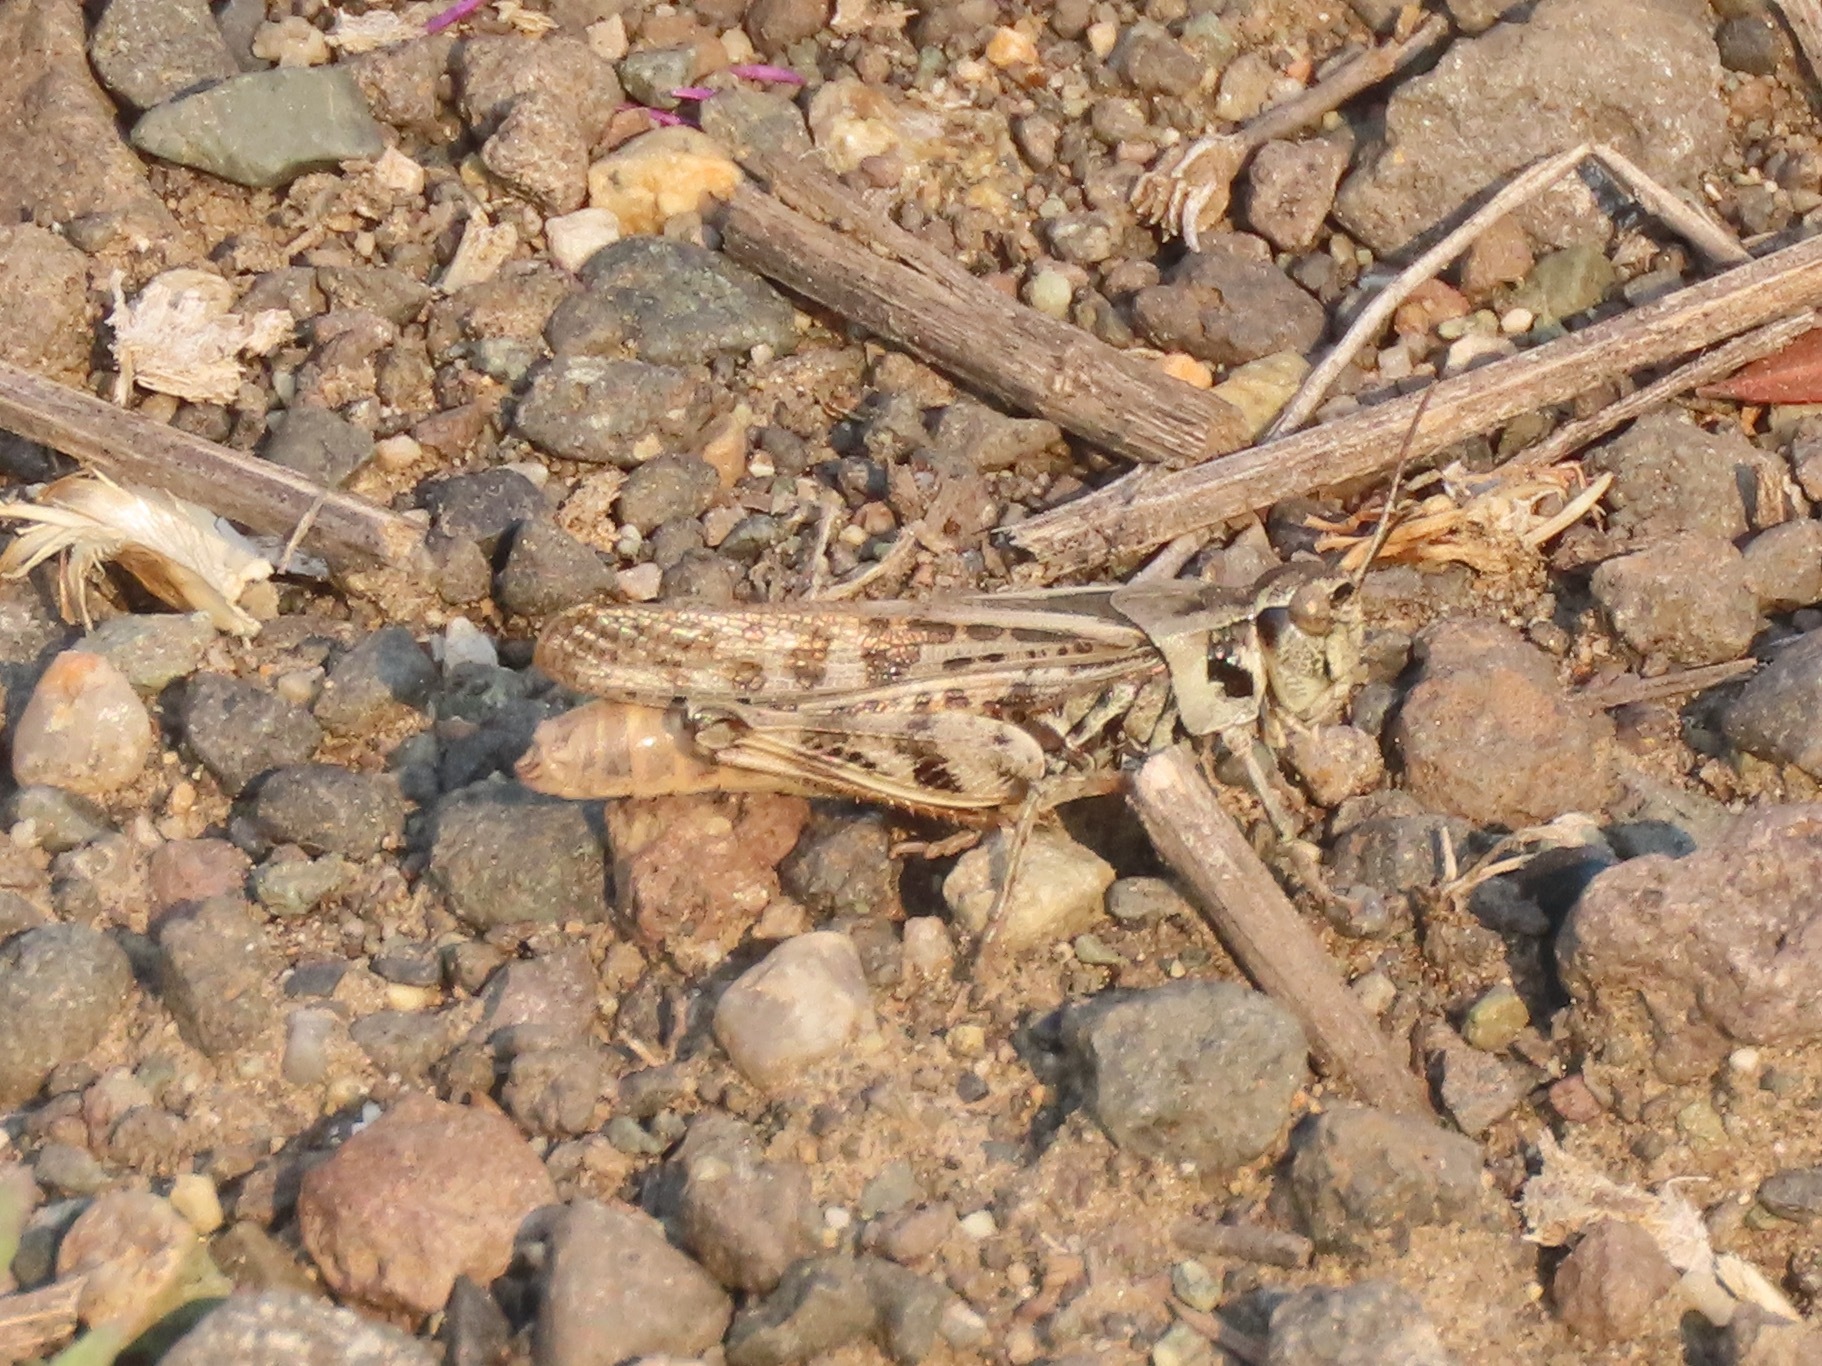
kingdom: Animalia
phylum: Arthropoda
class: Insecta
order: Orthoptera
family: Acrididae
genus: Camnula
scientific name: Camnula pellucida
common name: Clear-winged grasshopper
